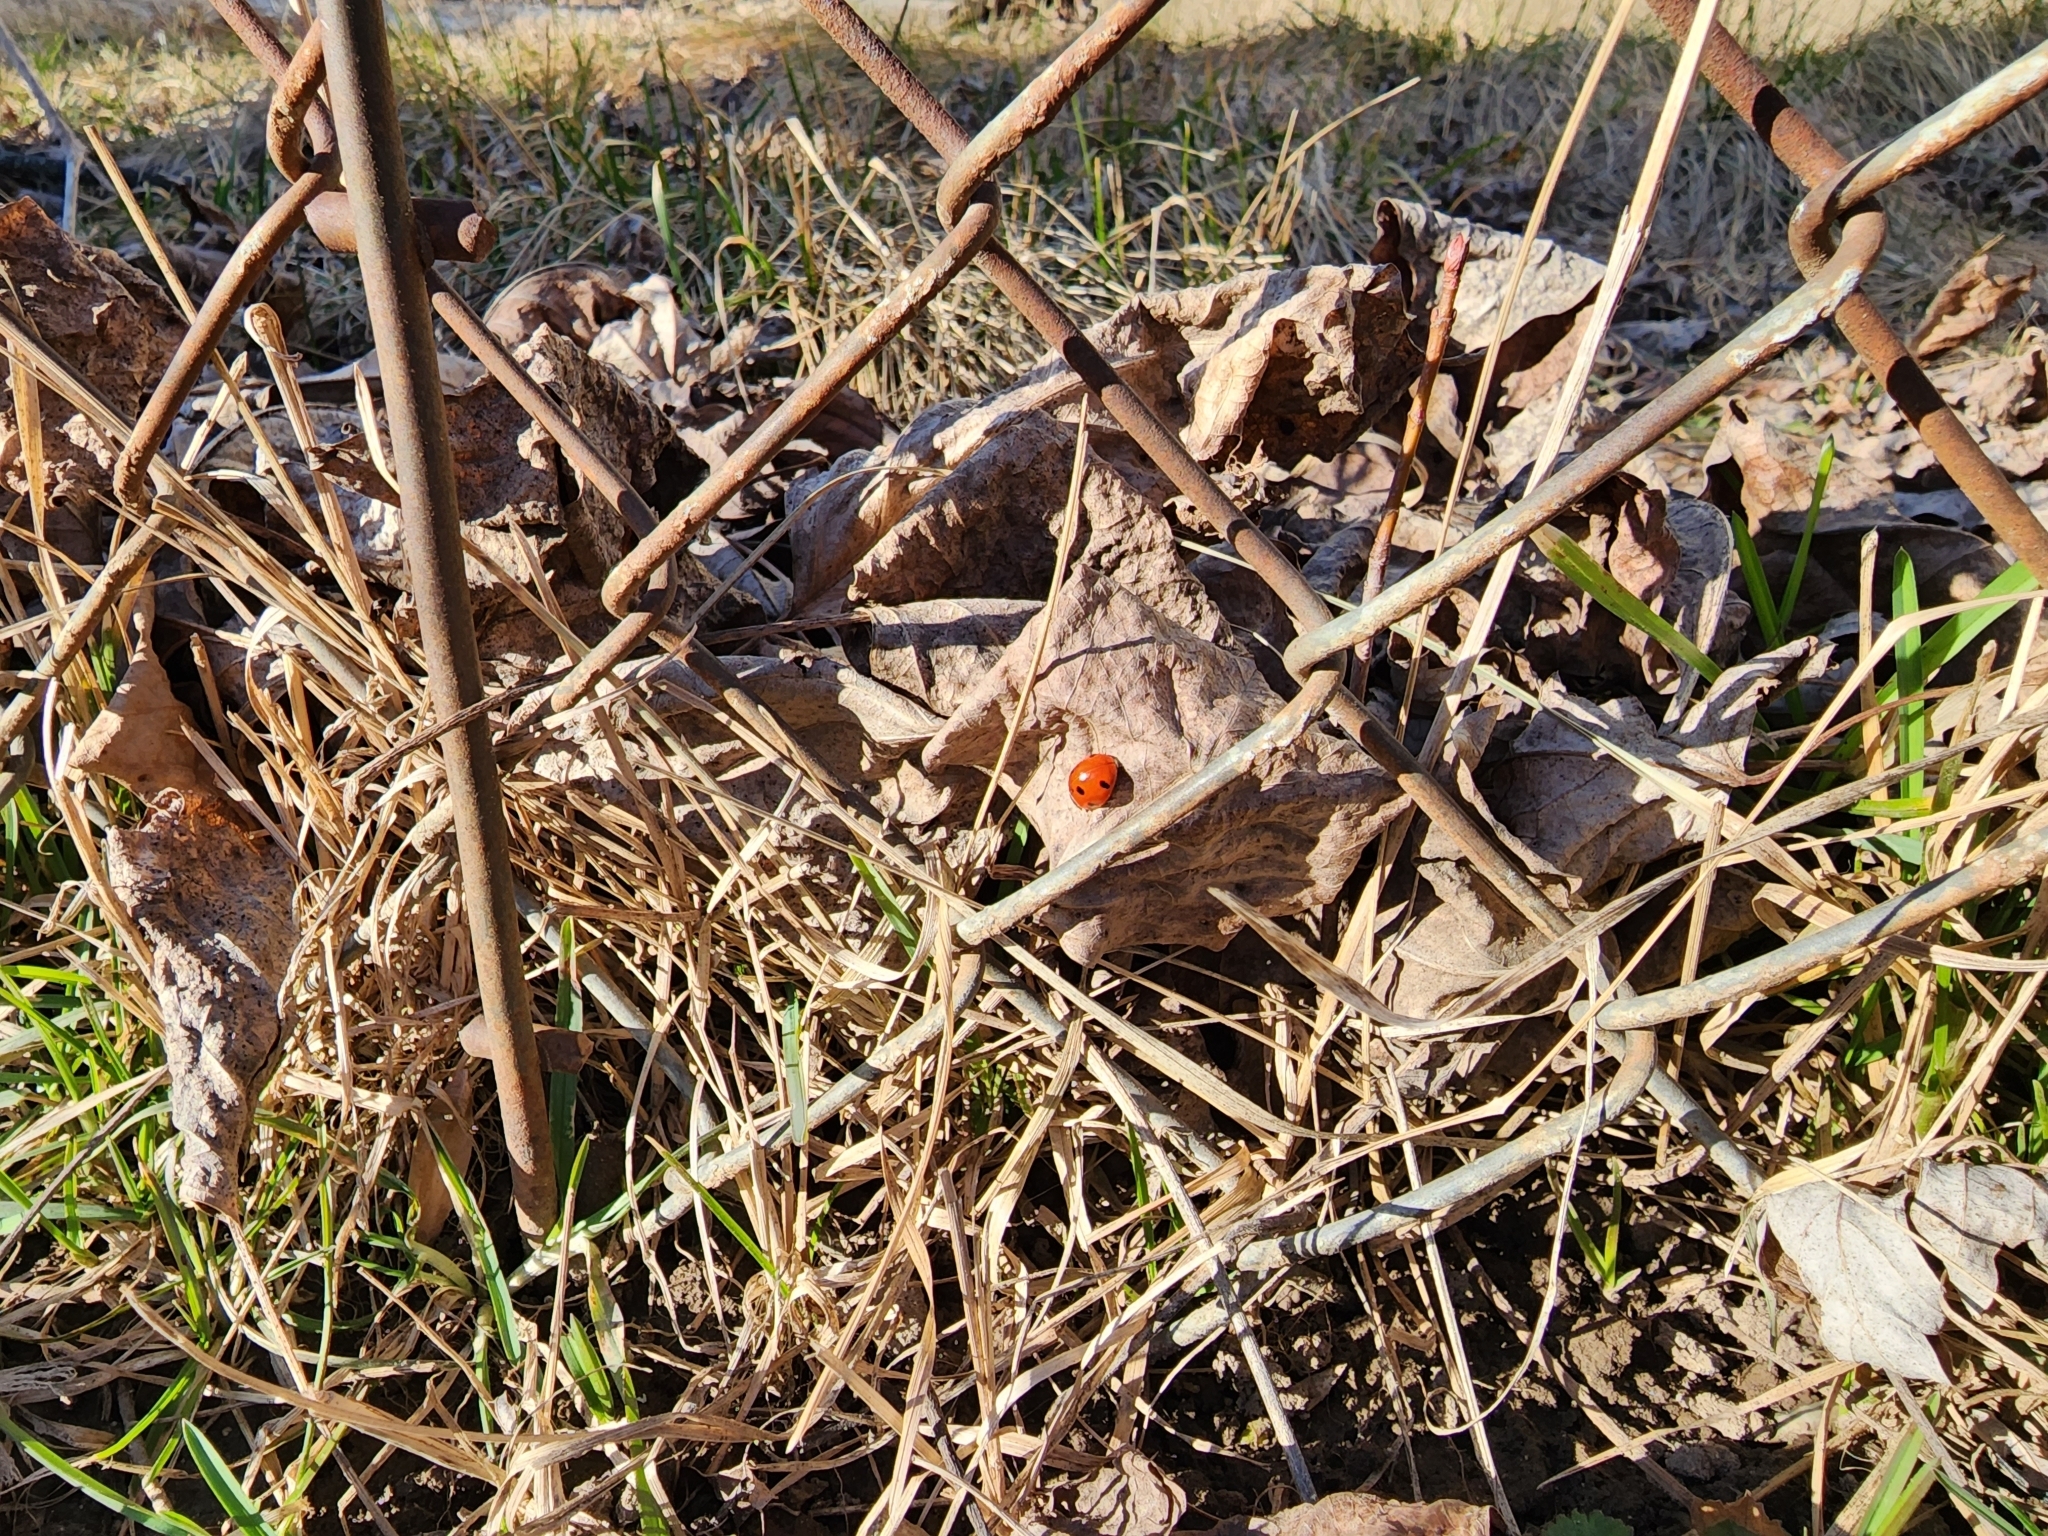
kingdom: Animalia
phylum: Arthropoda
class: Insecta
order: Coleoptera
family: Coccinellidae
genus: Coccinella
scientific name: Coccinella septempunctata
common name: Sevenspotted lady beetle
